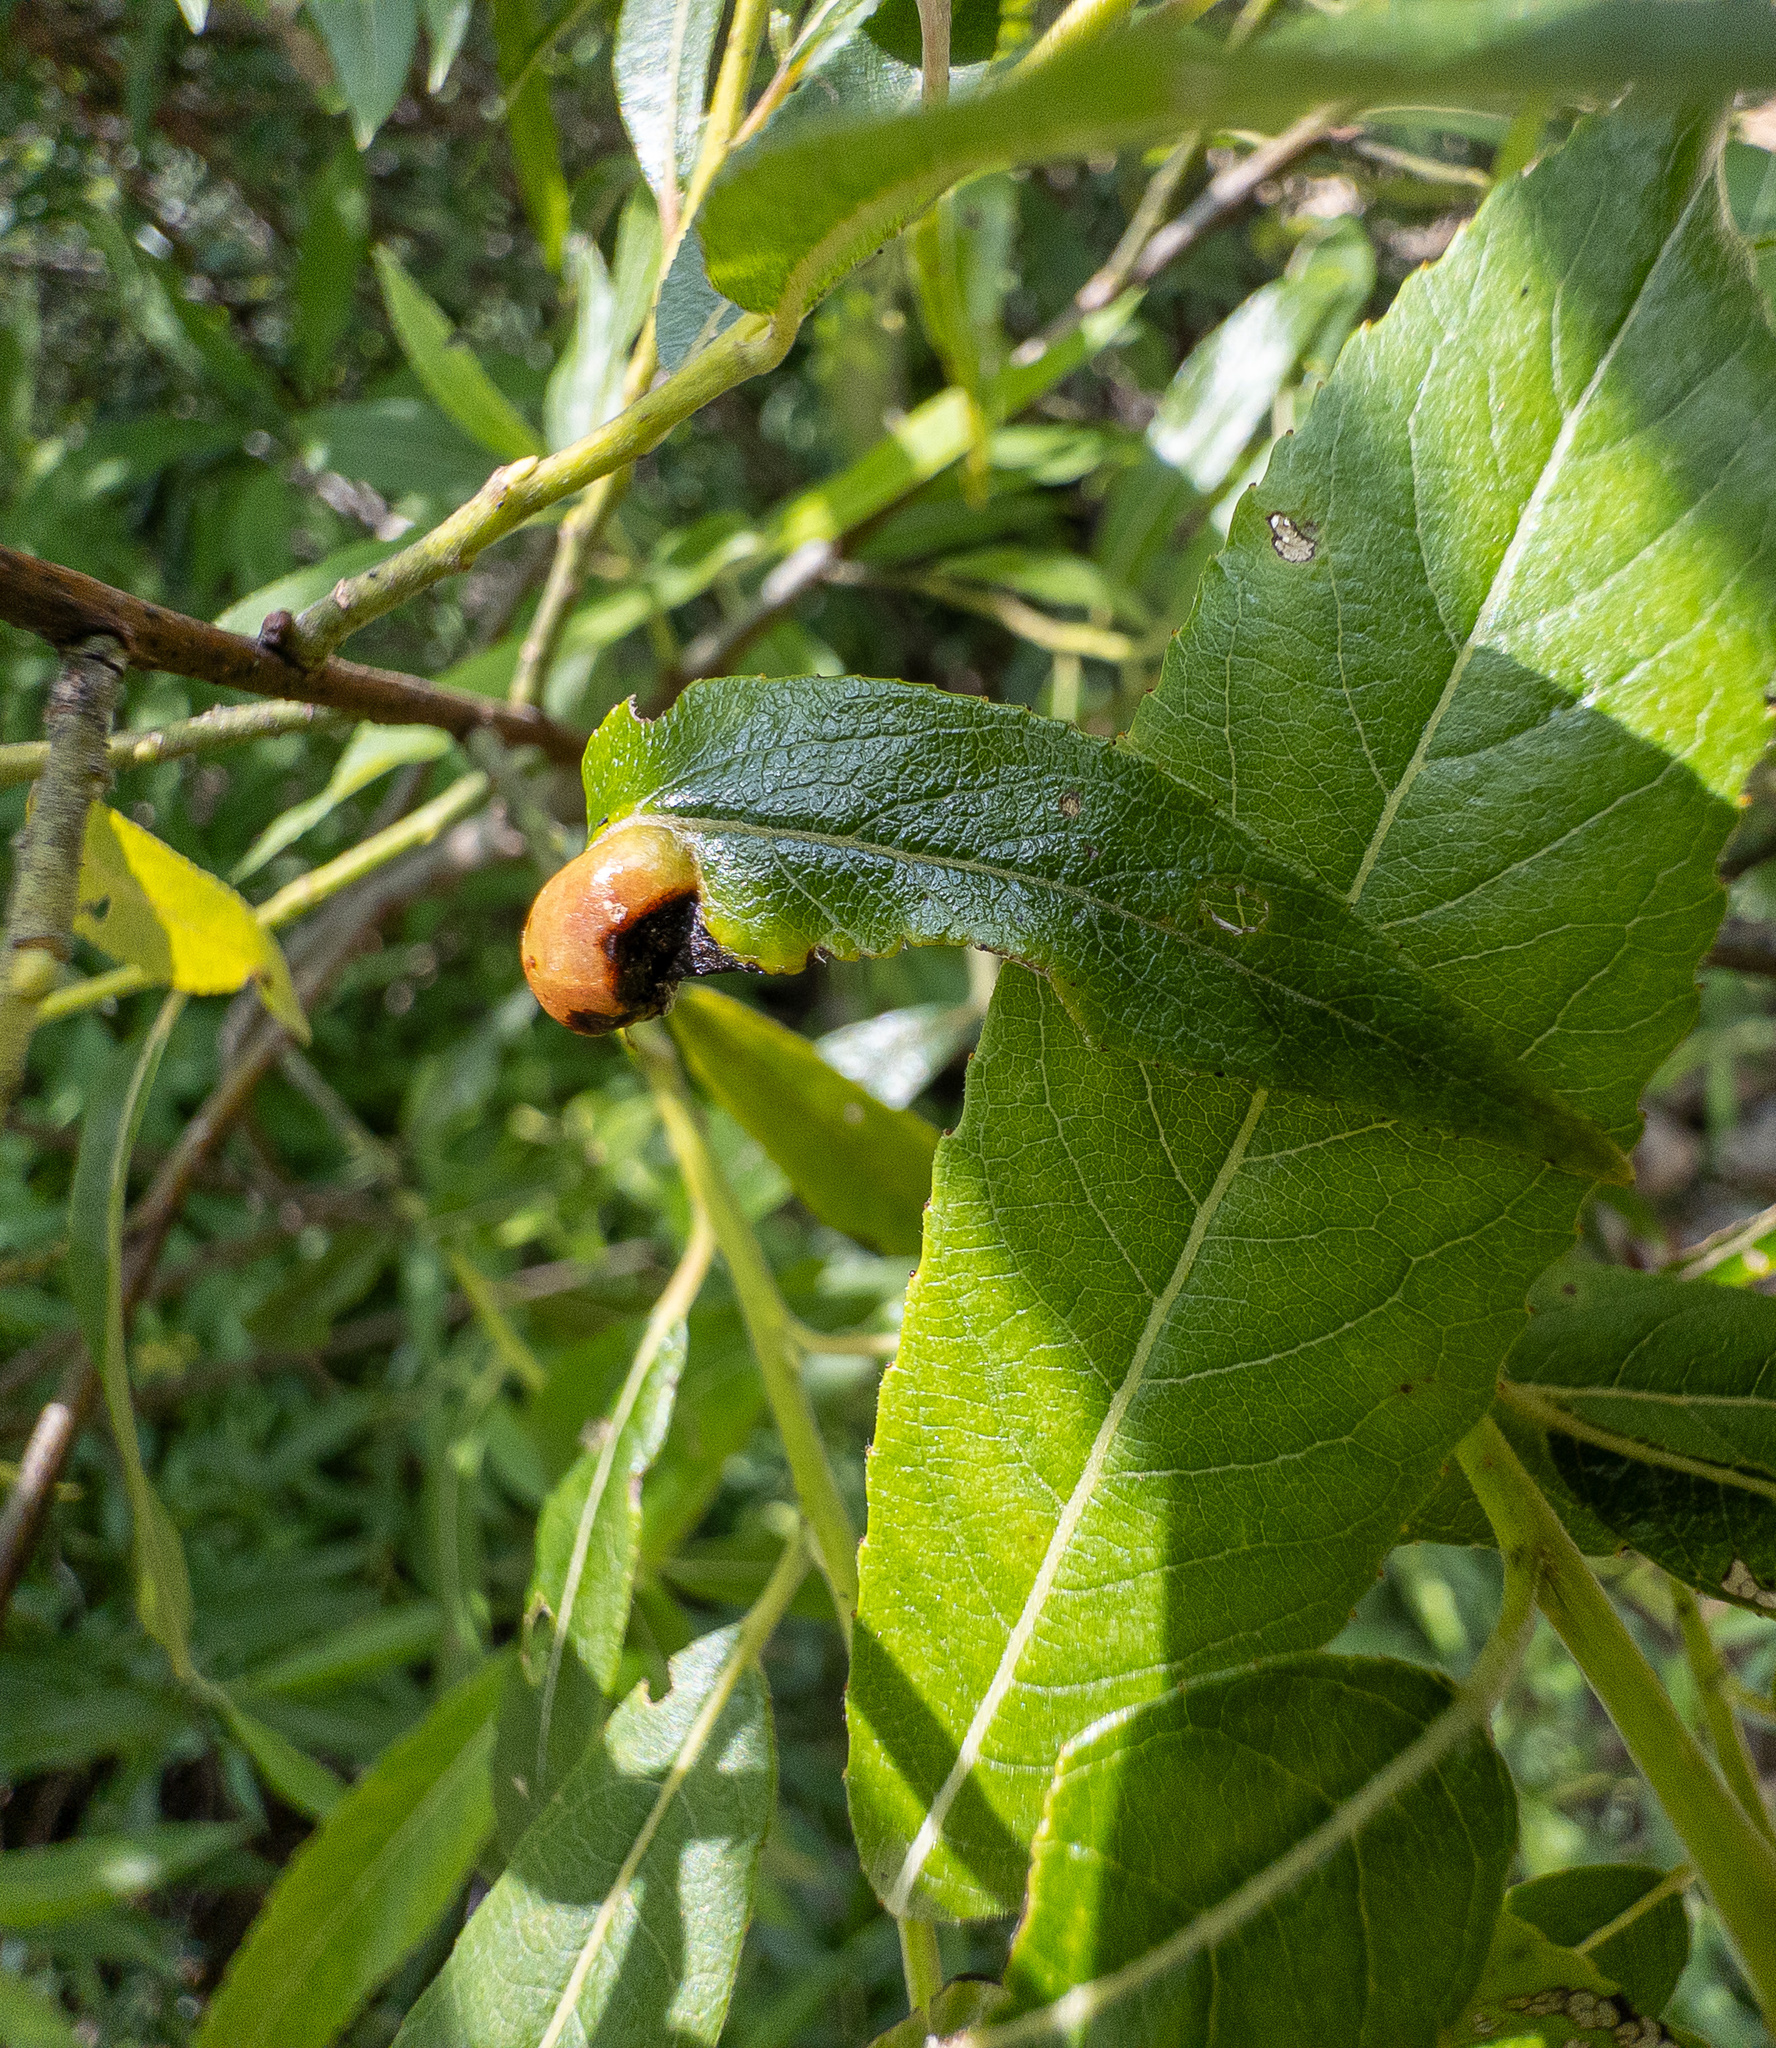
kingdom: Animalia
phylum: Arthropoda
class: Insecta
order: Hymenoptera
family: Tenthredinidae
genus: Pontania
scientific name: Pontania proxima
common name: Common sawfly
